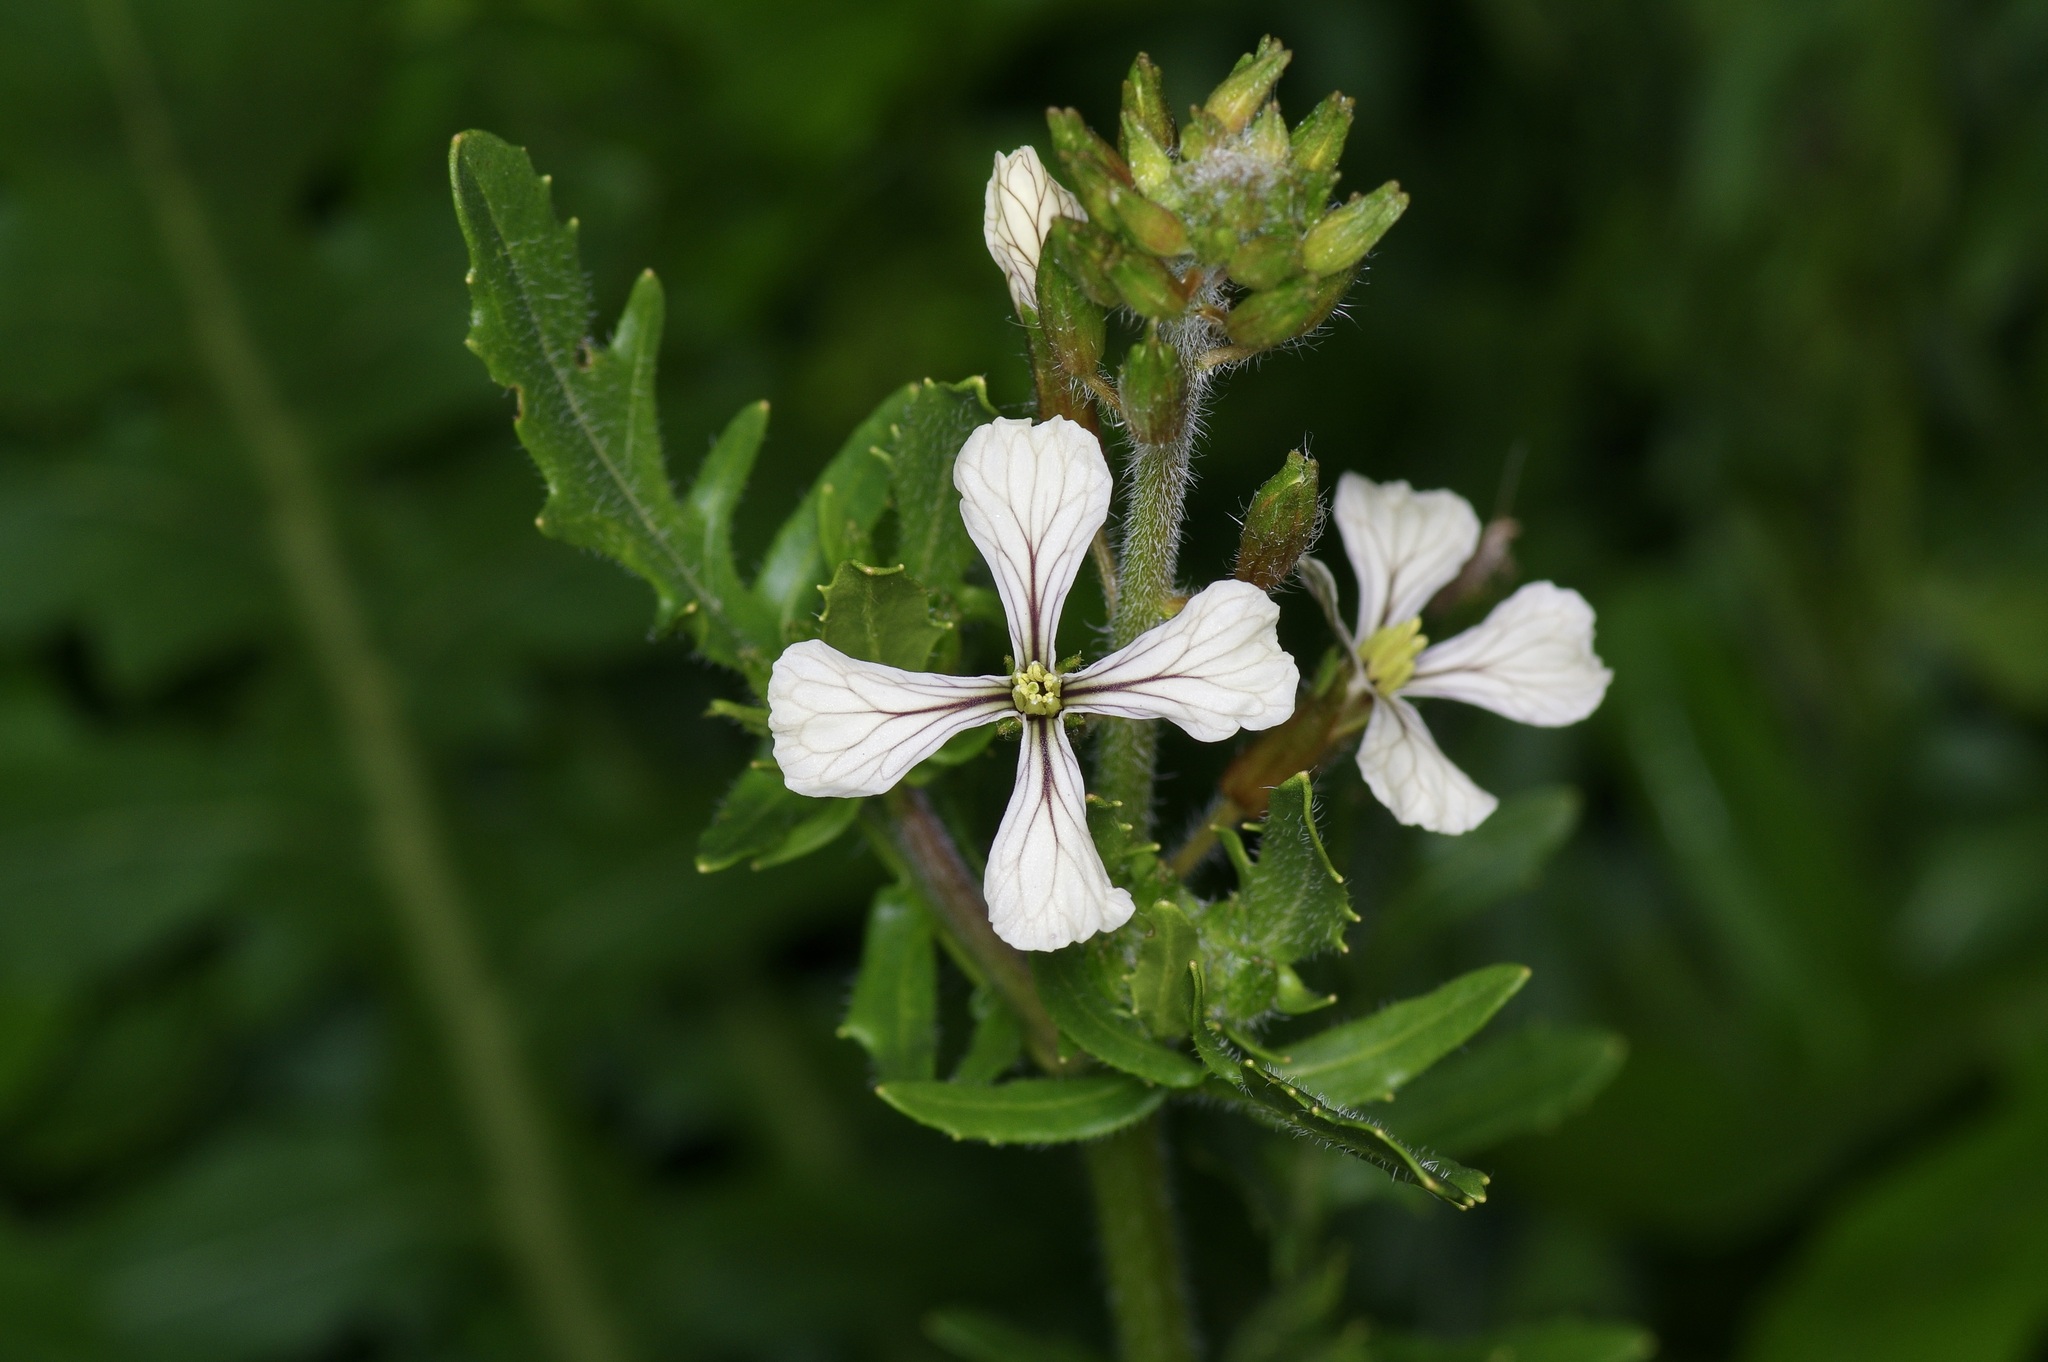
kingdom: Plantae
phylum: Tracheophyta
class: Magnoliopsida
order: Brassicales
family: Brassicaceae
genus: Eruca
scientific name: Eruca vesicaria
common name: Garden rocket
